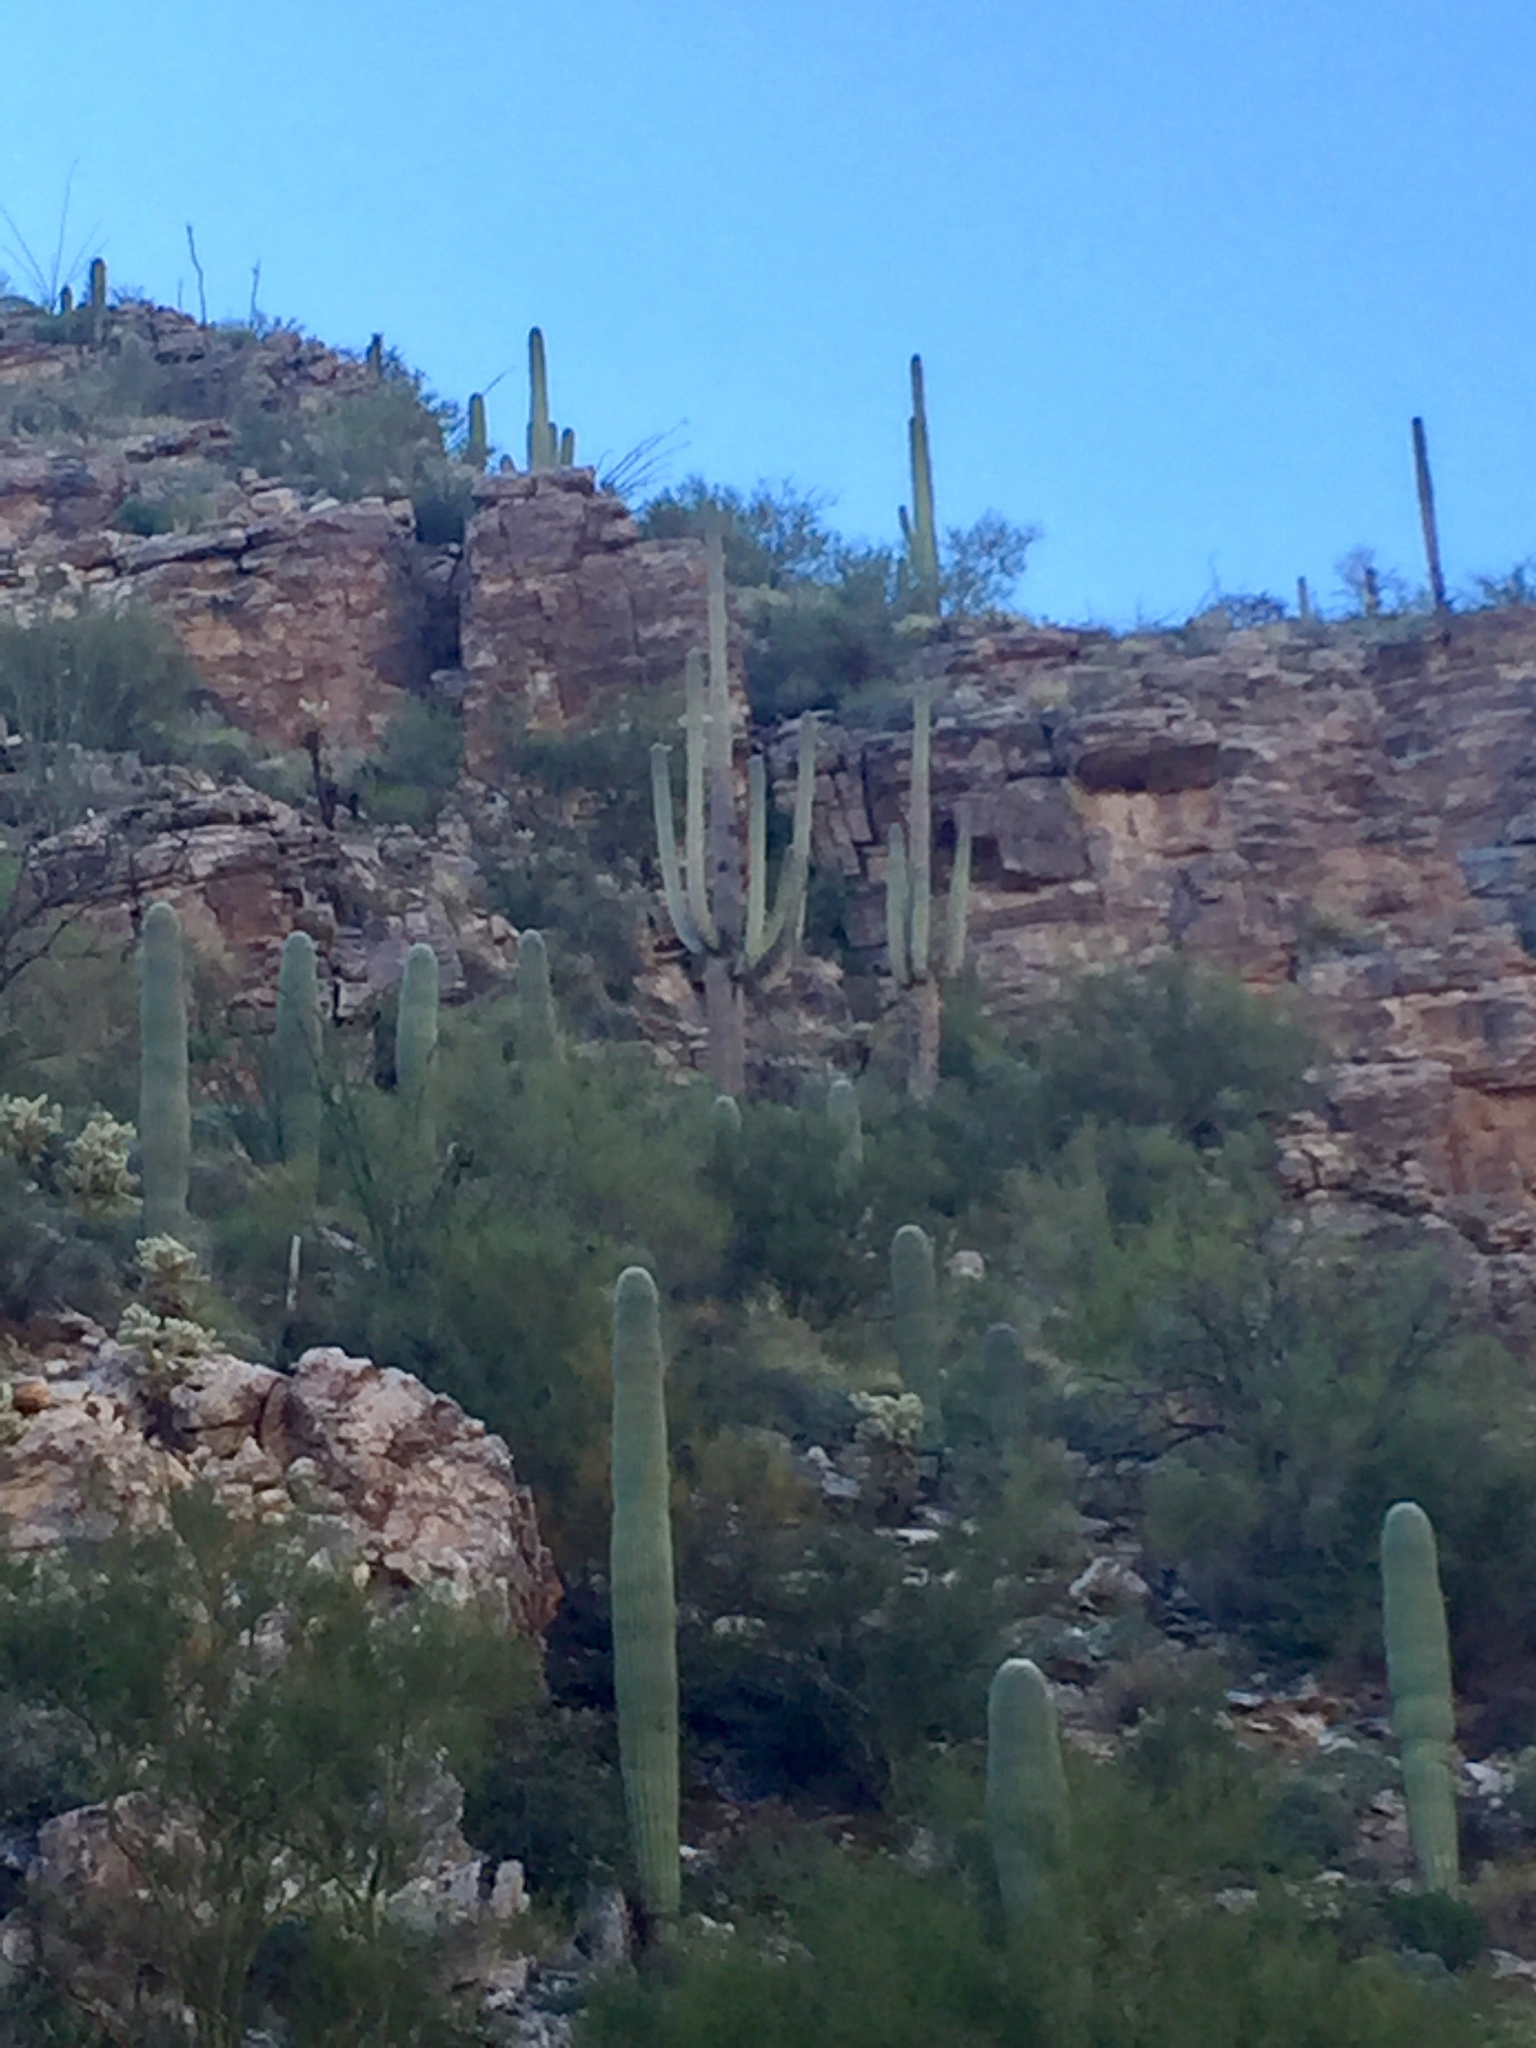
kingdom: Plantae
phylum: Tracheophyta
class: Magnoliopsida
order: Caryophyllales
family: Cactaceae
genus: Carnegiea
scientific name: Carnegiea gigantea
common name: Saguaro
